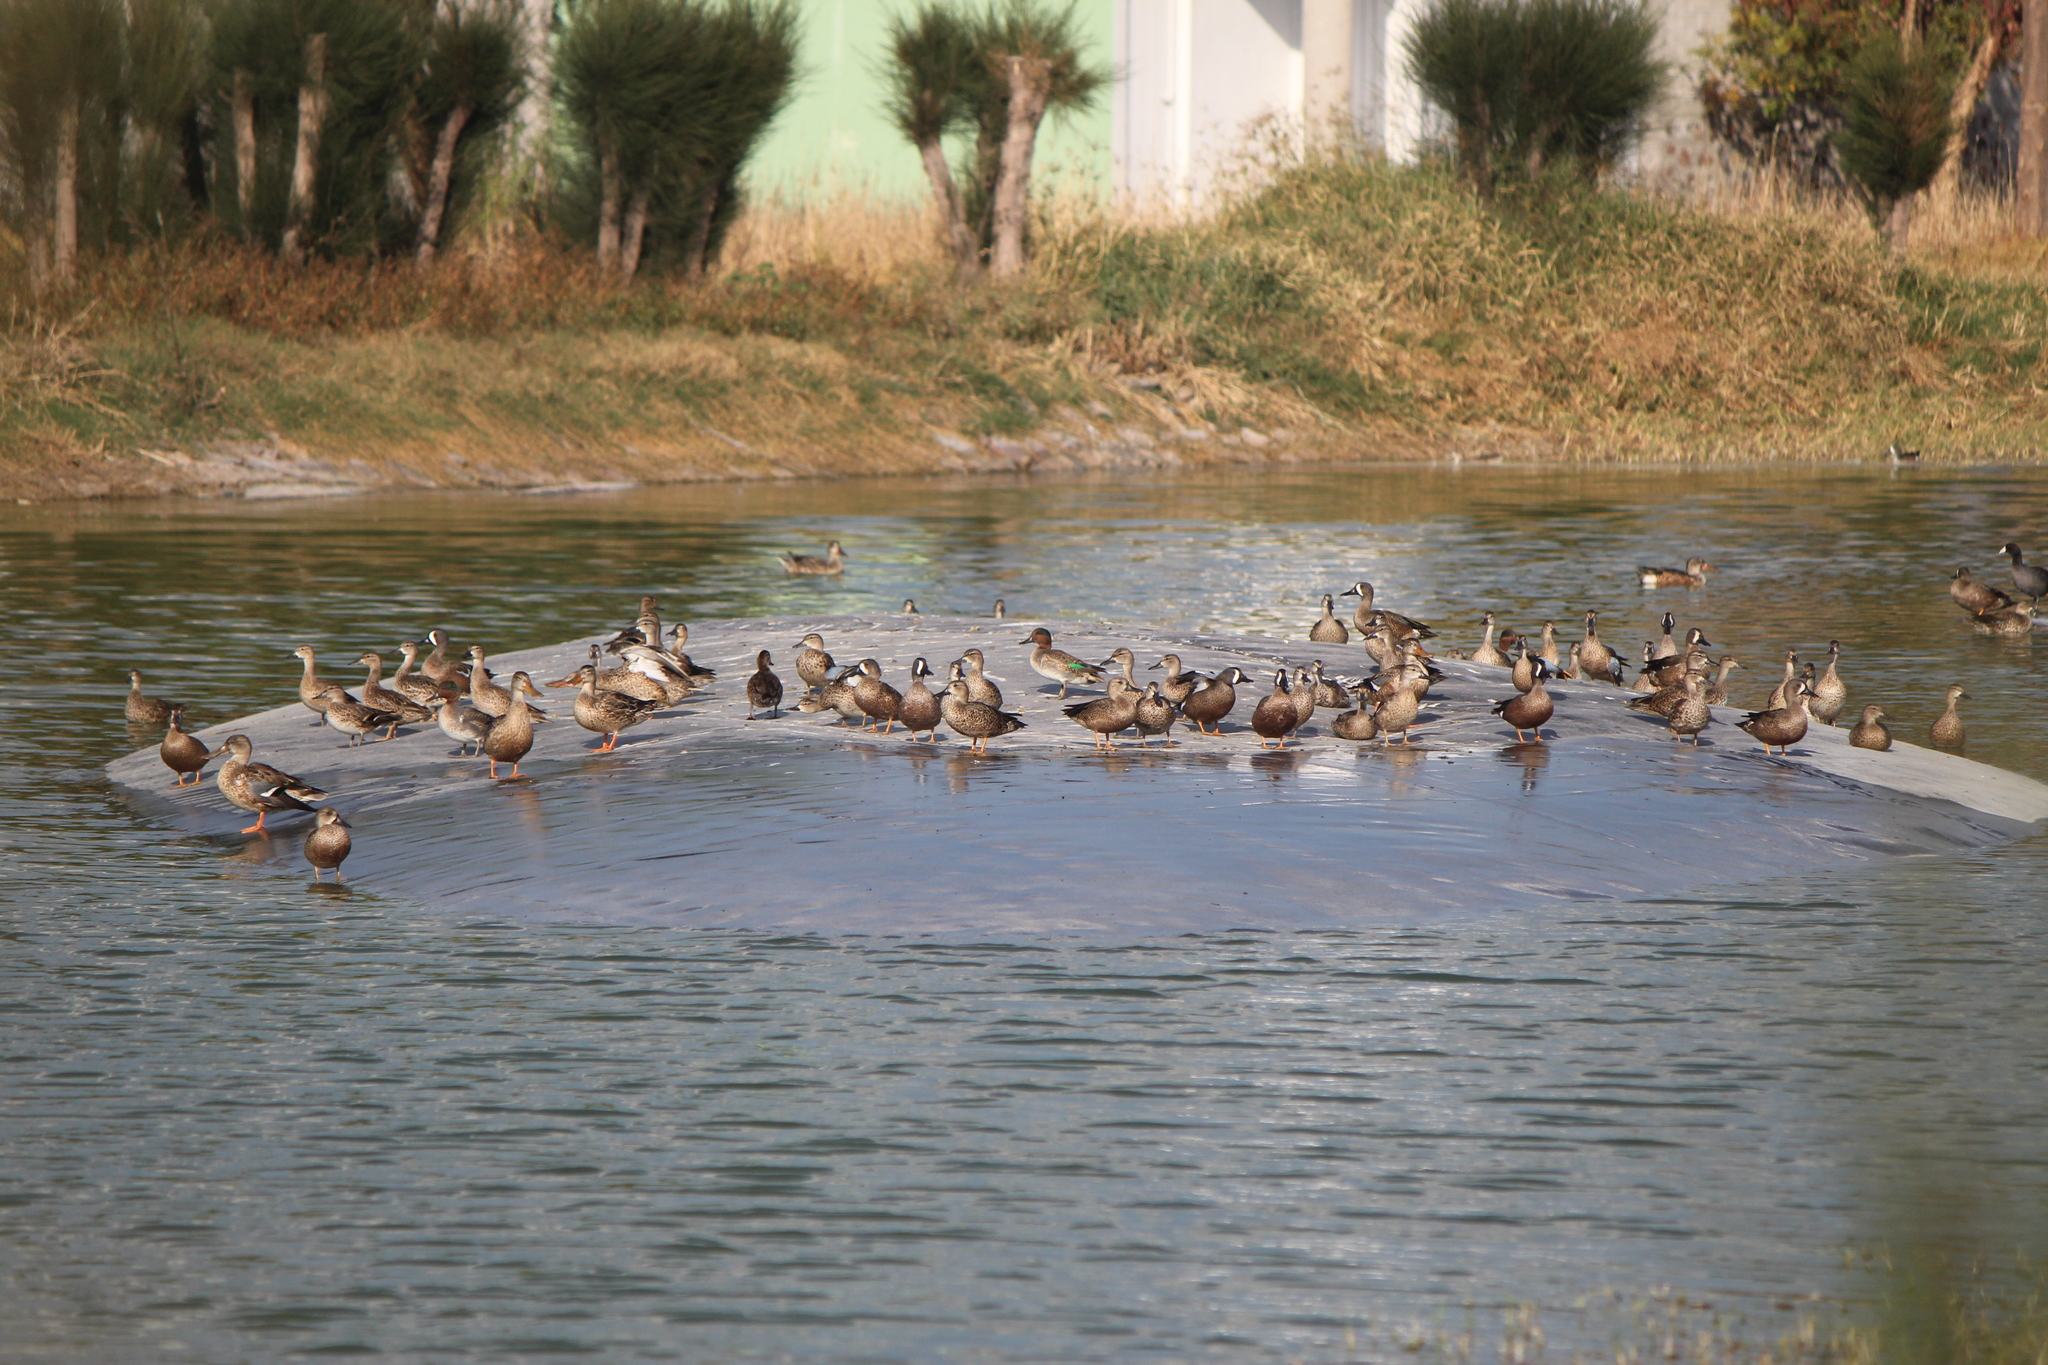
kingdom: Animalia
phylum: Chordata
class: Aves
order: Anseriformes
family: Anatidae
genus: Spatula
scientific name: Spatula discors
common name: Blue-winged teal
